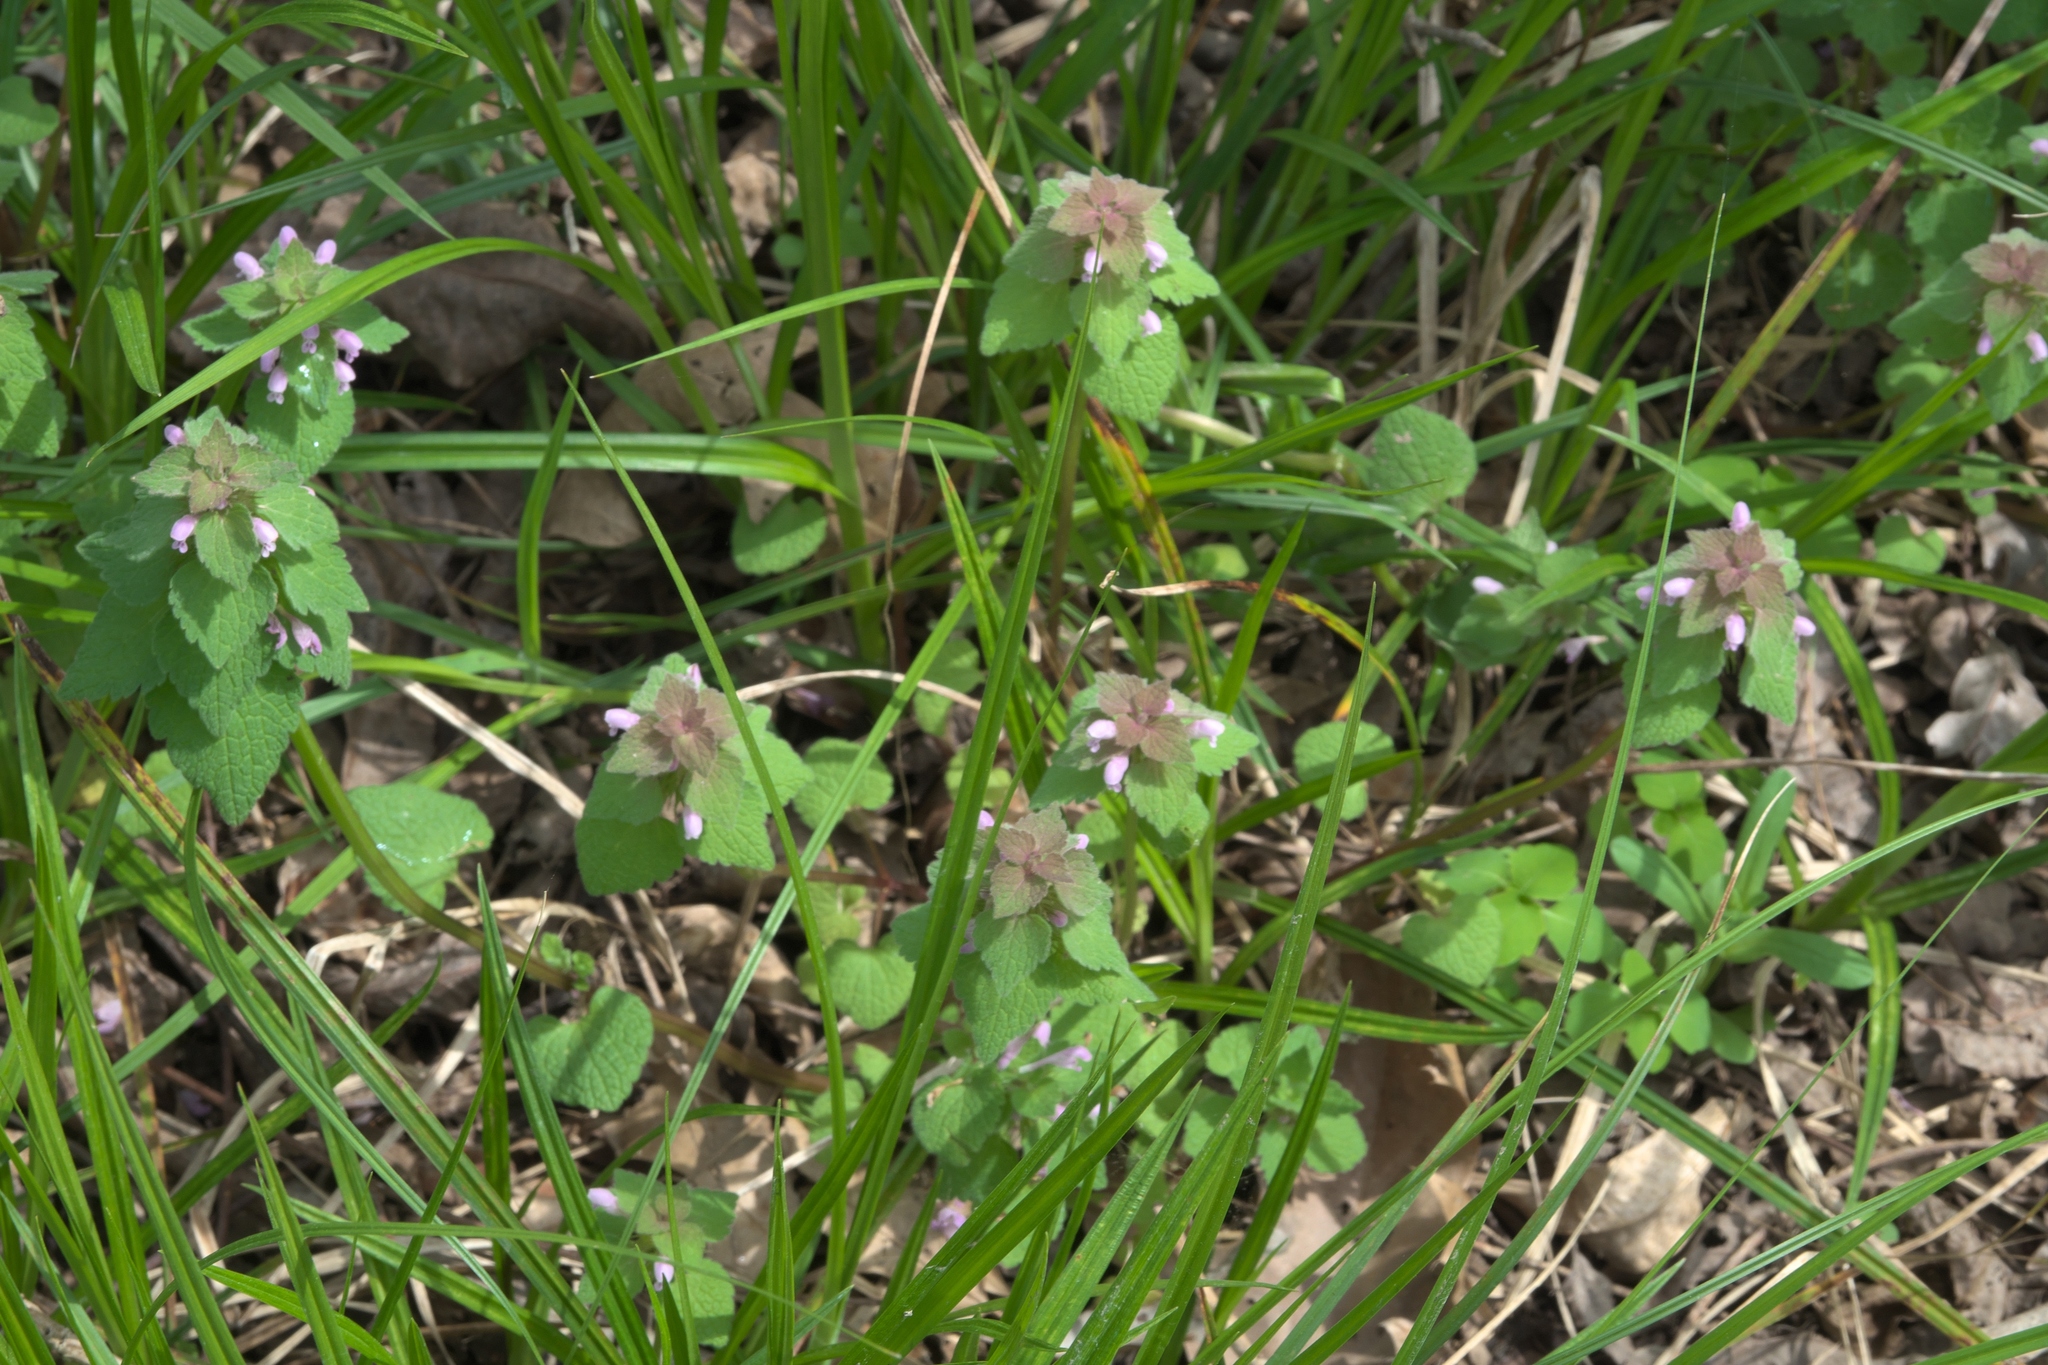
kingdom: Plantae
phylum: Tracheophyta
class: Magnoliopsida
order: Lamiales
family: Lamiaceae
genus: Lamium
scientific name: Lamium purpureum
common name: Red dead-nettle
